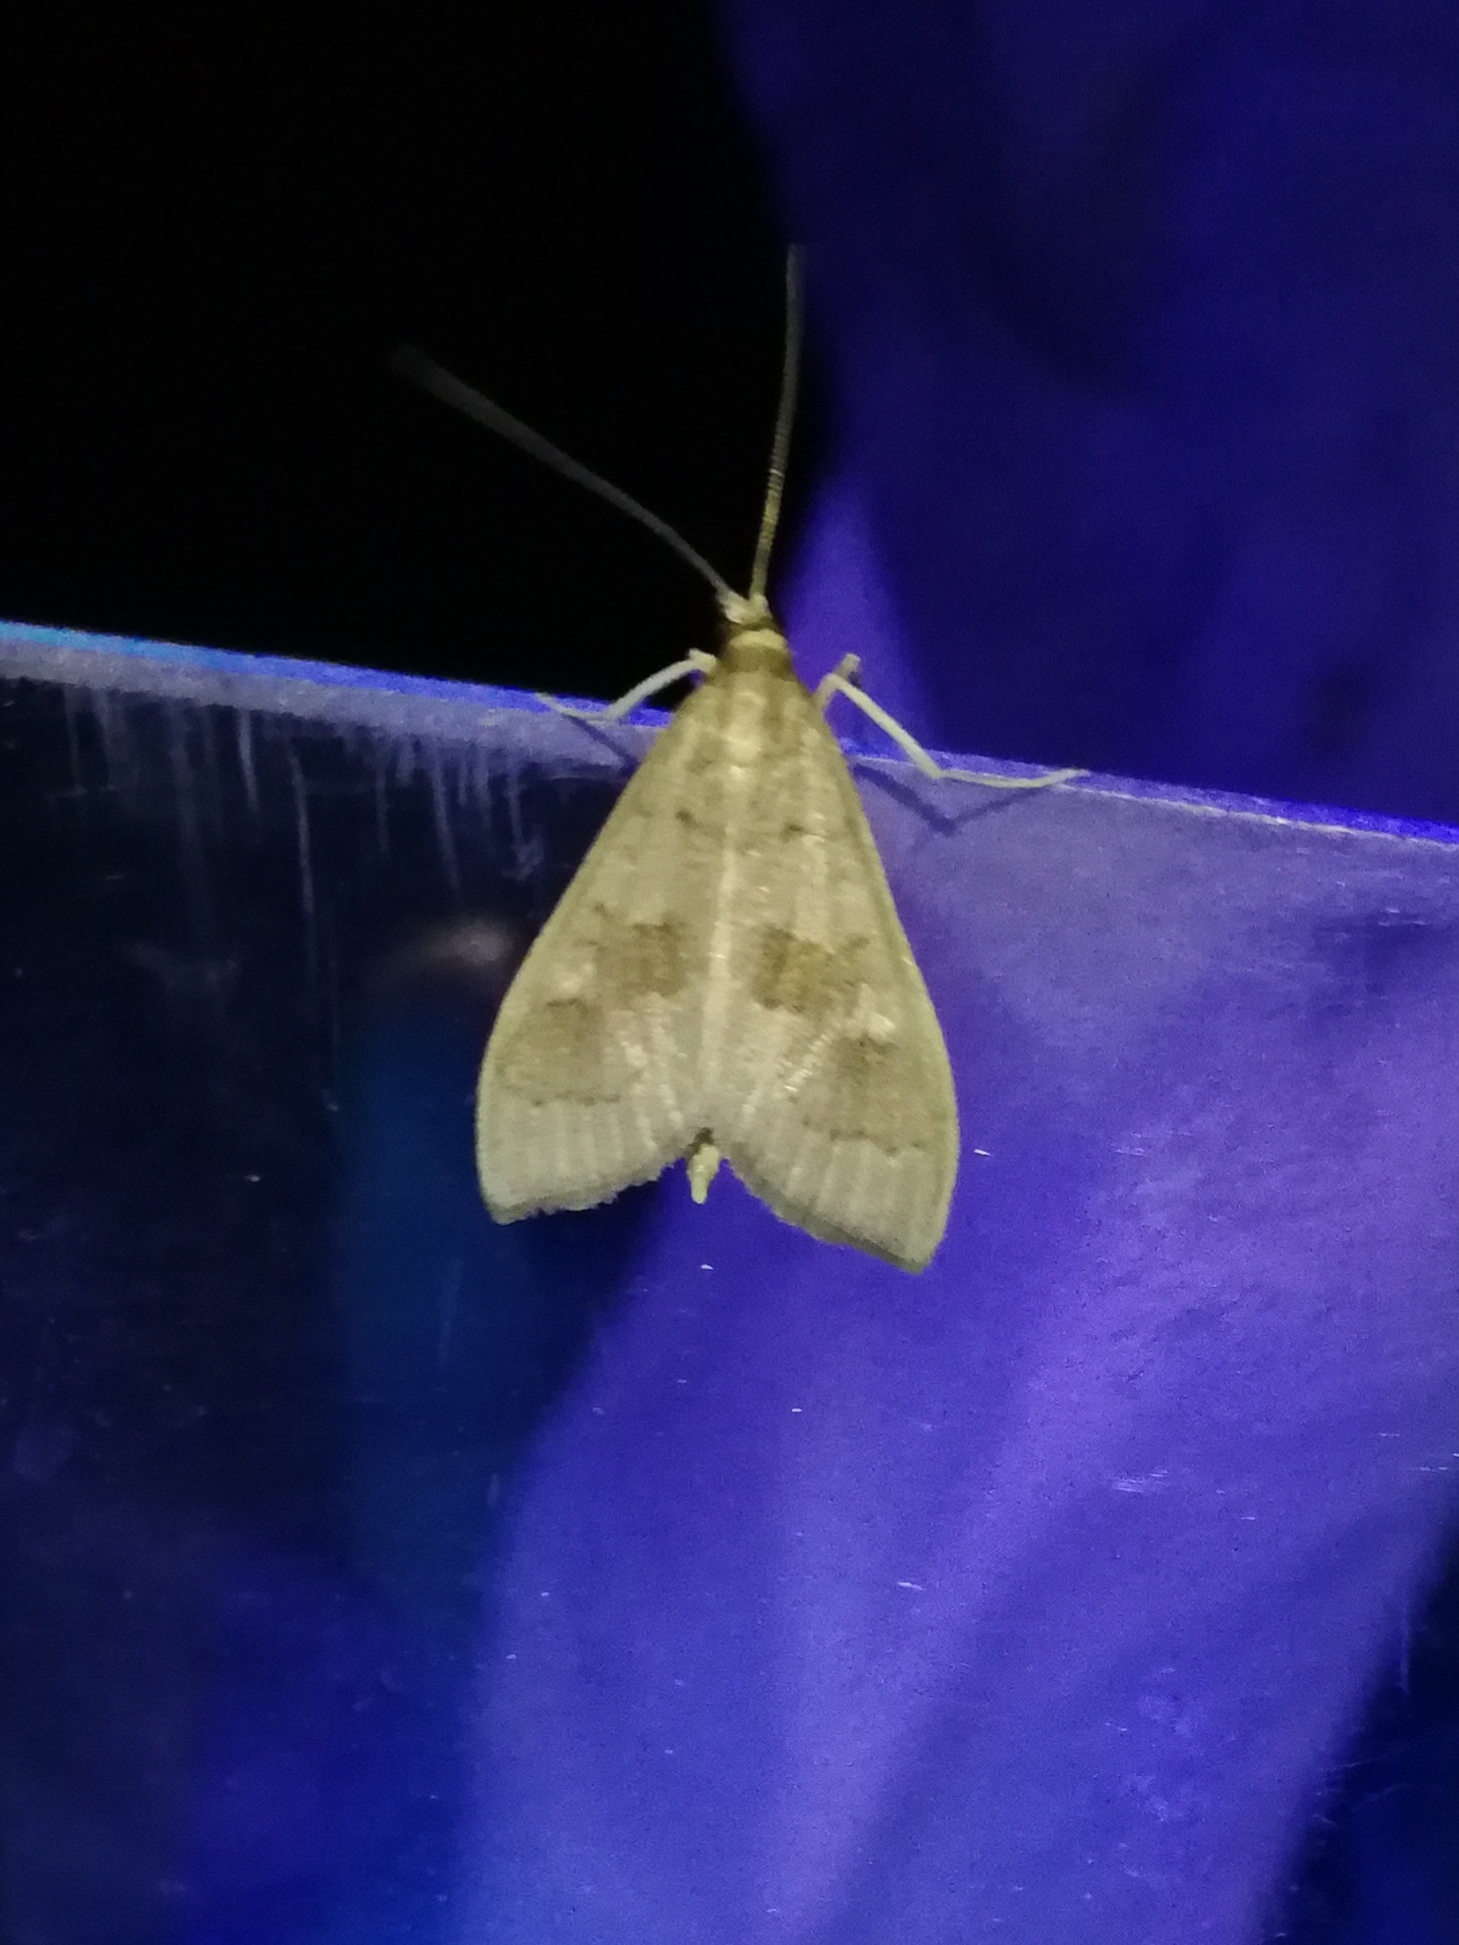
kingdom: Animalia
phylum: Arthropoda
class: Insecta
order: Lepidoptera
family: Crambidae
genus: Mecyna
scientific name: Mecyna asinalis
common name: Coastal pearl
